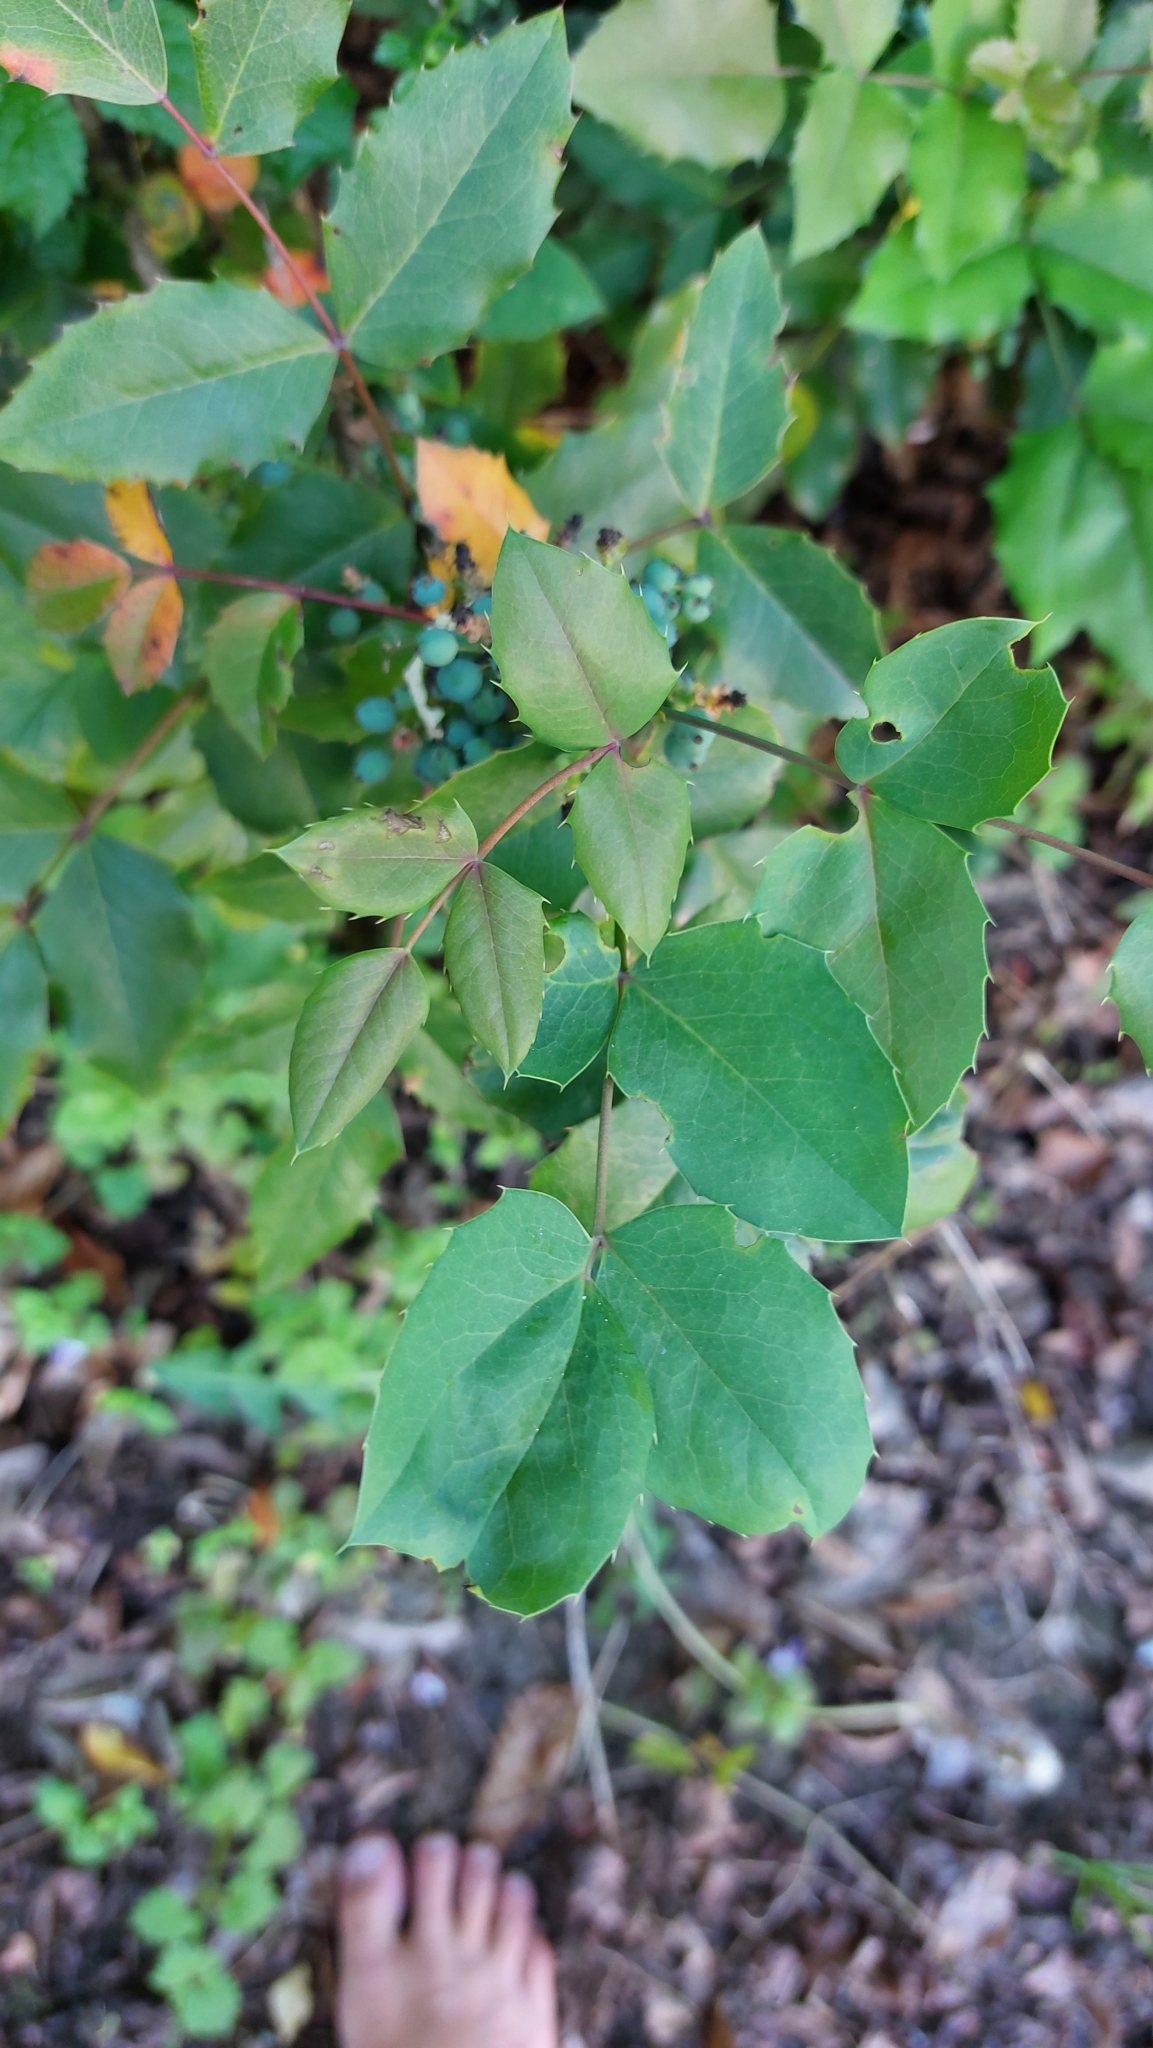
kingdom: Plantae
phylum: Tracheophyta
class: Magnoliopsida
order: Ranunculales
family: Berberidaceae
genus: Mahonia
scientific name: Mahonia aquifolium
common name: Oregon-grape
